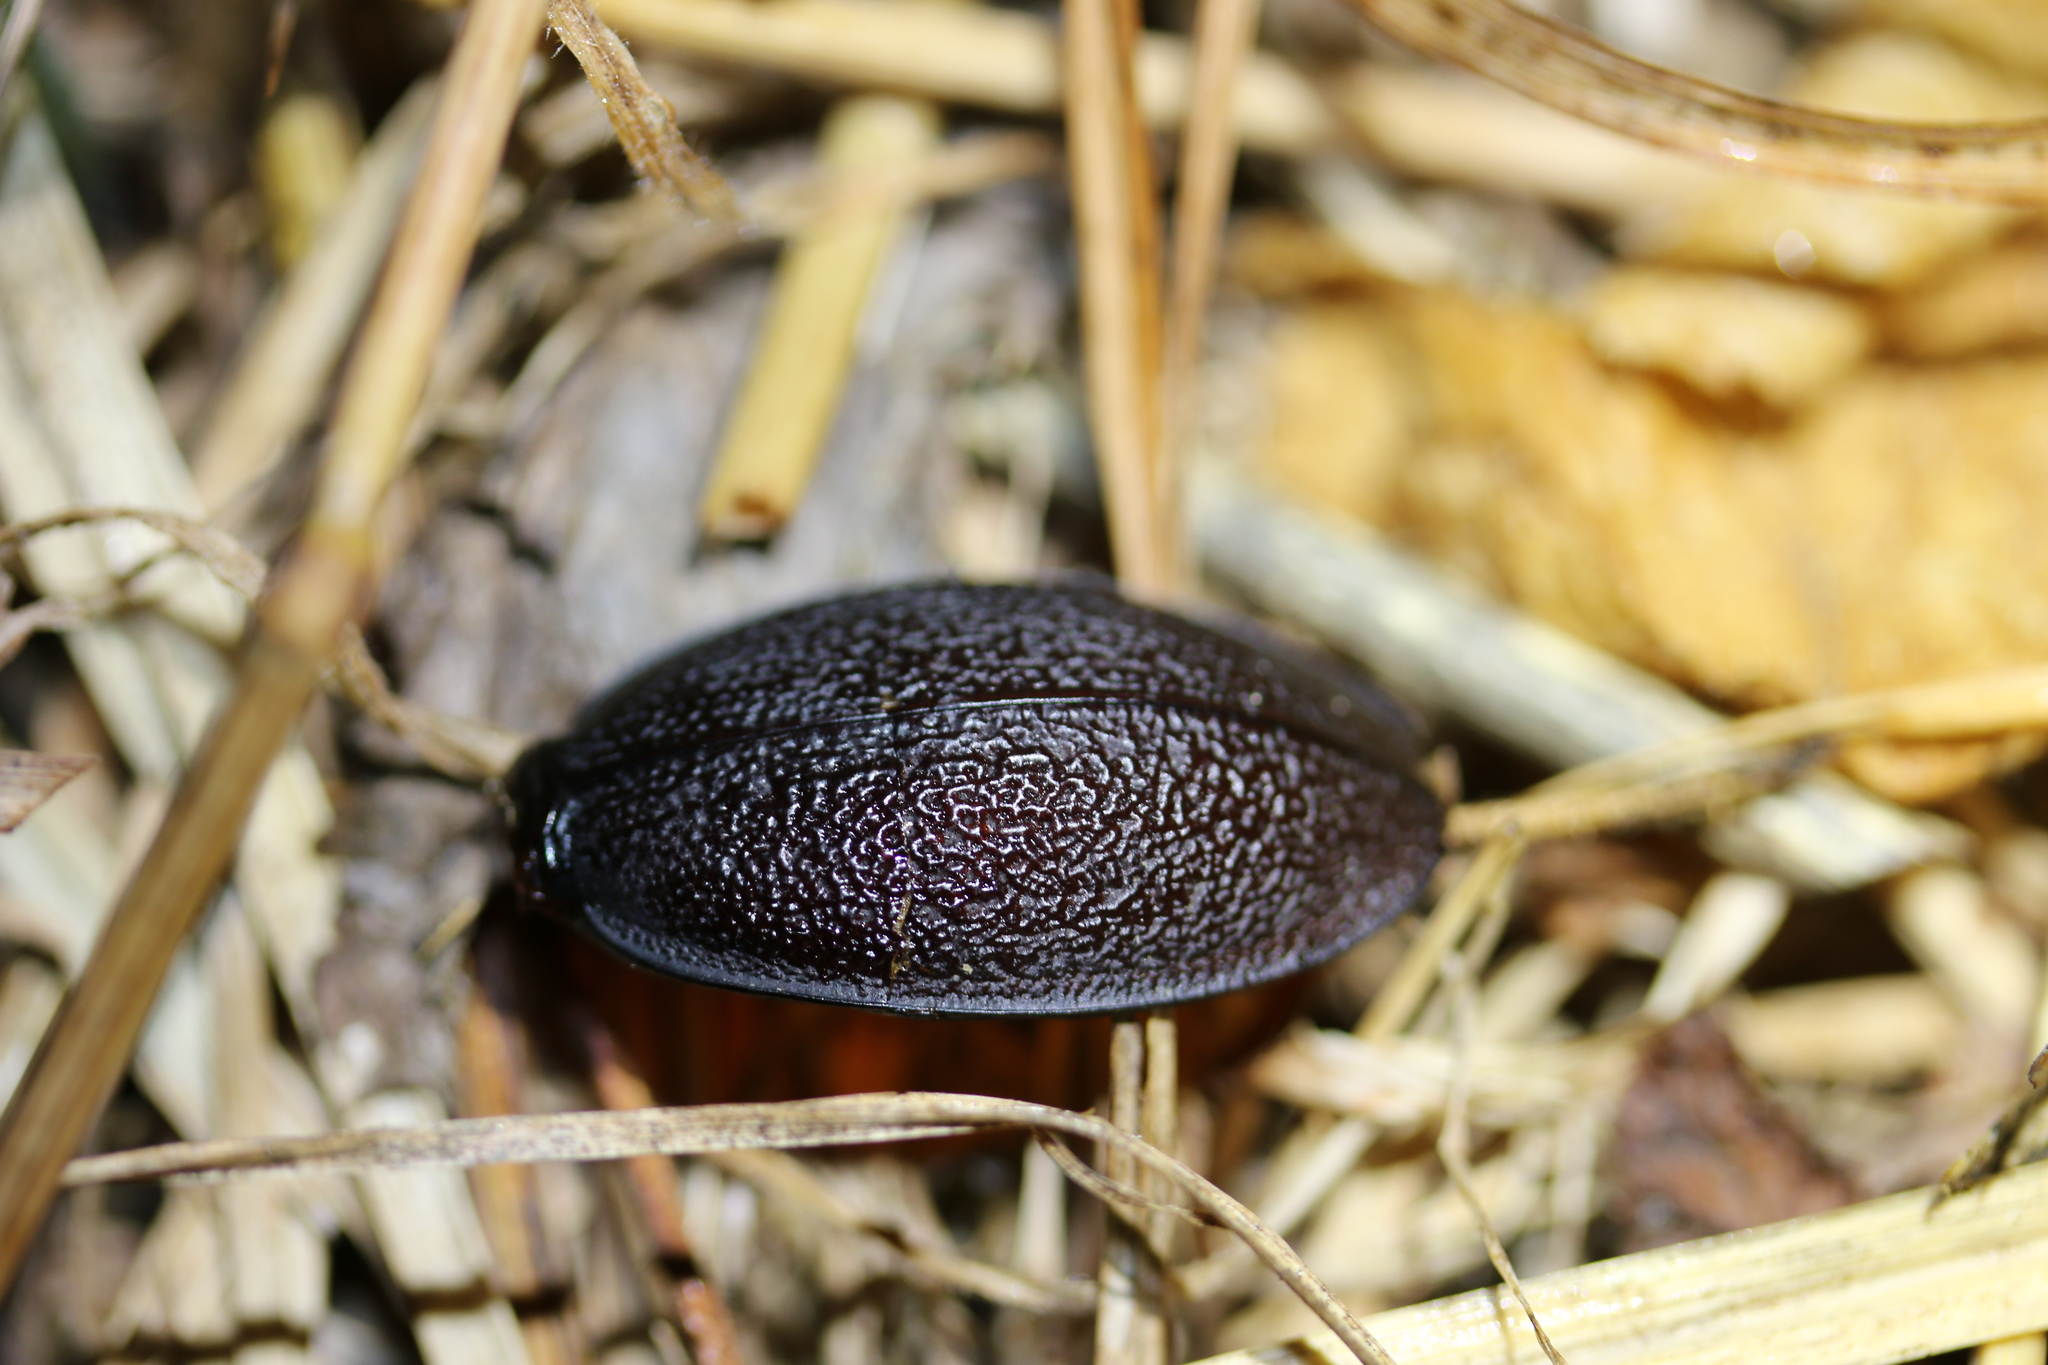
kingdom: Animalia
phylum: Arthropoda
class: Insecta
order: Coleoptera
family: Carabidae
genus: Carabus
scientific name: Carabus coriaceus
